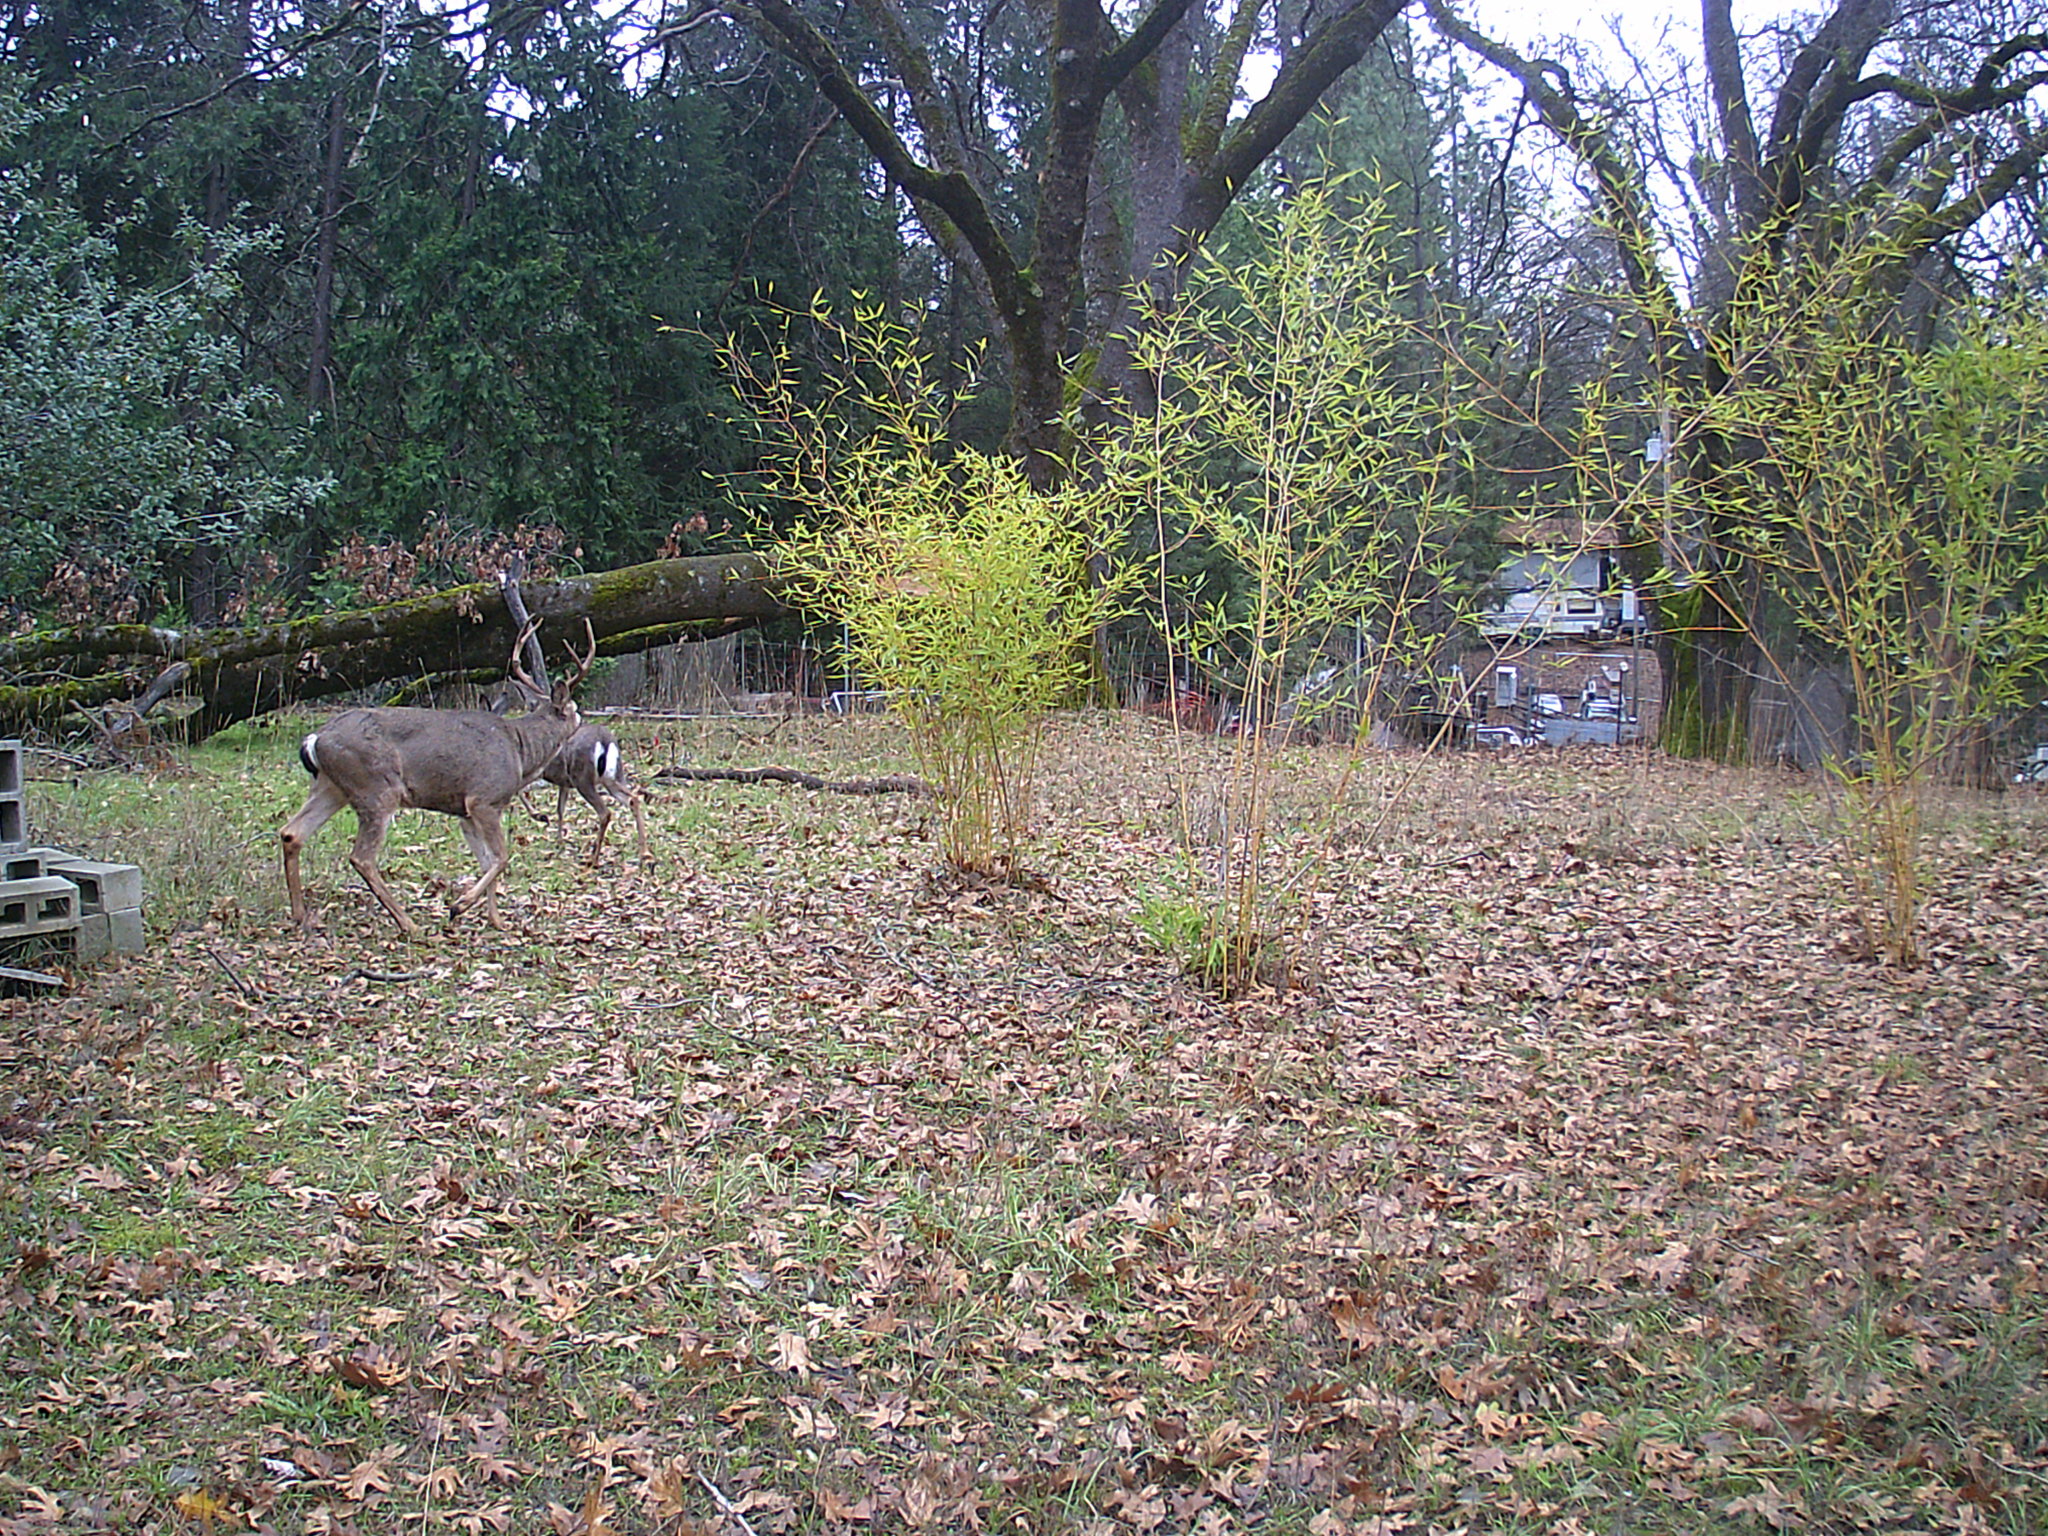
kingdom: Animalia
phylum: Chordata
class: Mammalia
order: Artiodactyla
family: Cervidae
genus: Odocoileus
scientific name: Odocoileus hemionus
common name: Mule deer
